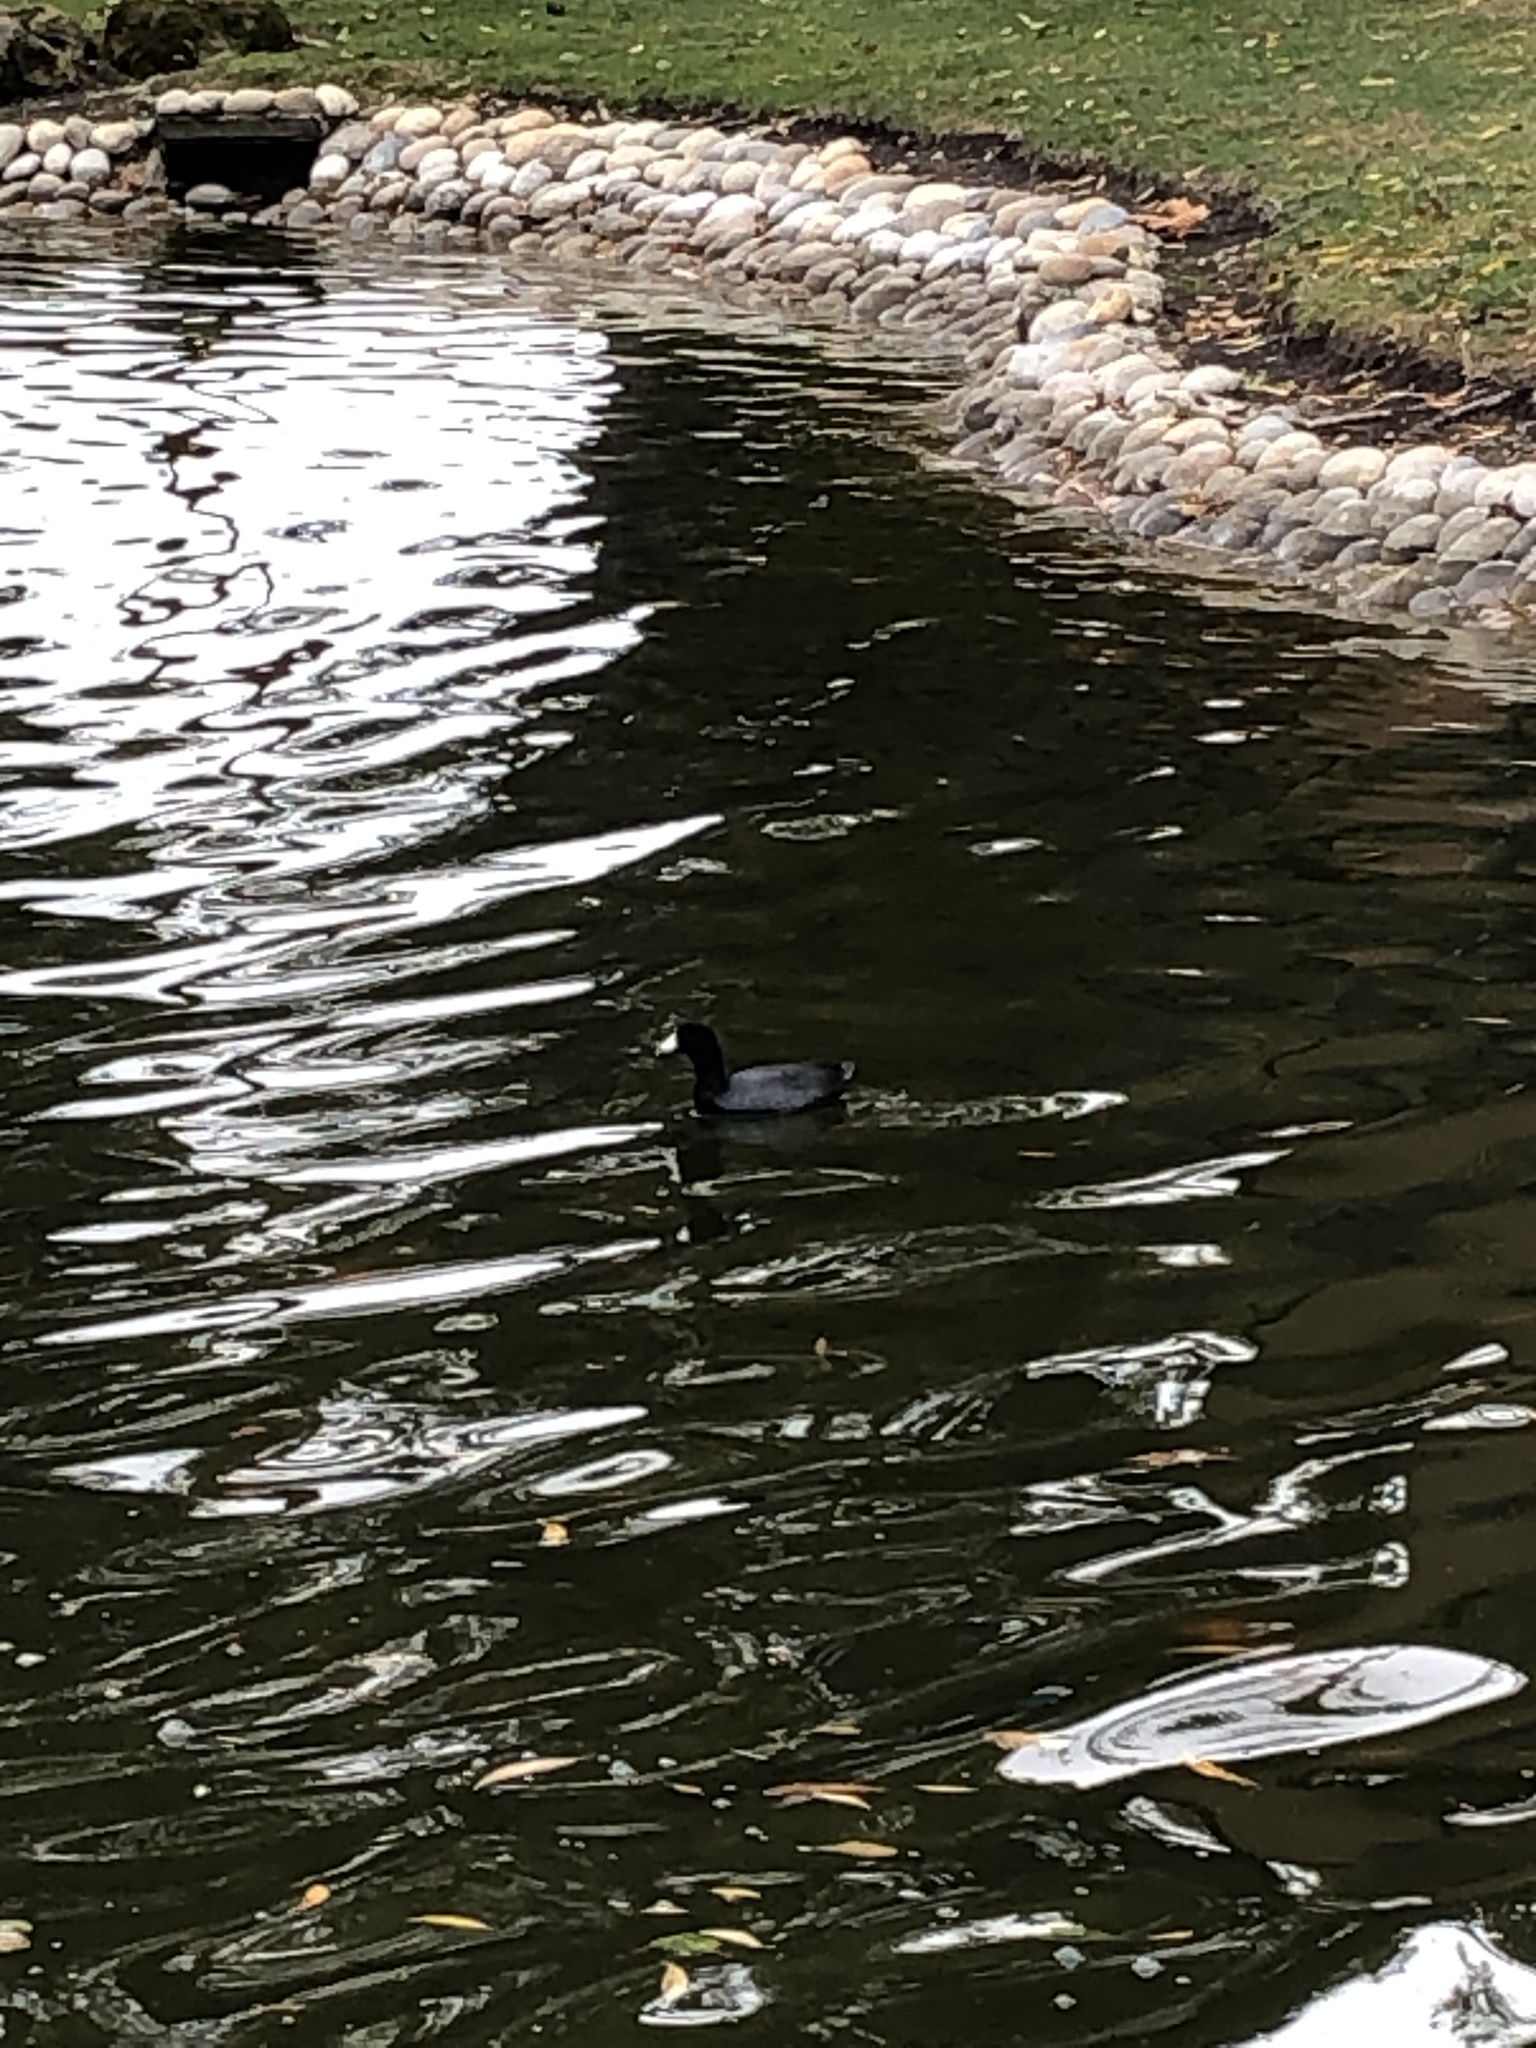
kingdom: Animalia
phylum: Chordata
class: Aves
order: Gruiformes
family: Rallidae
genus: Fulica
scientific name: Fulica americana
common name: American coot
